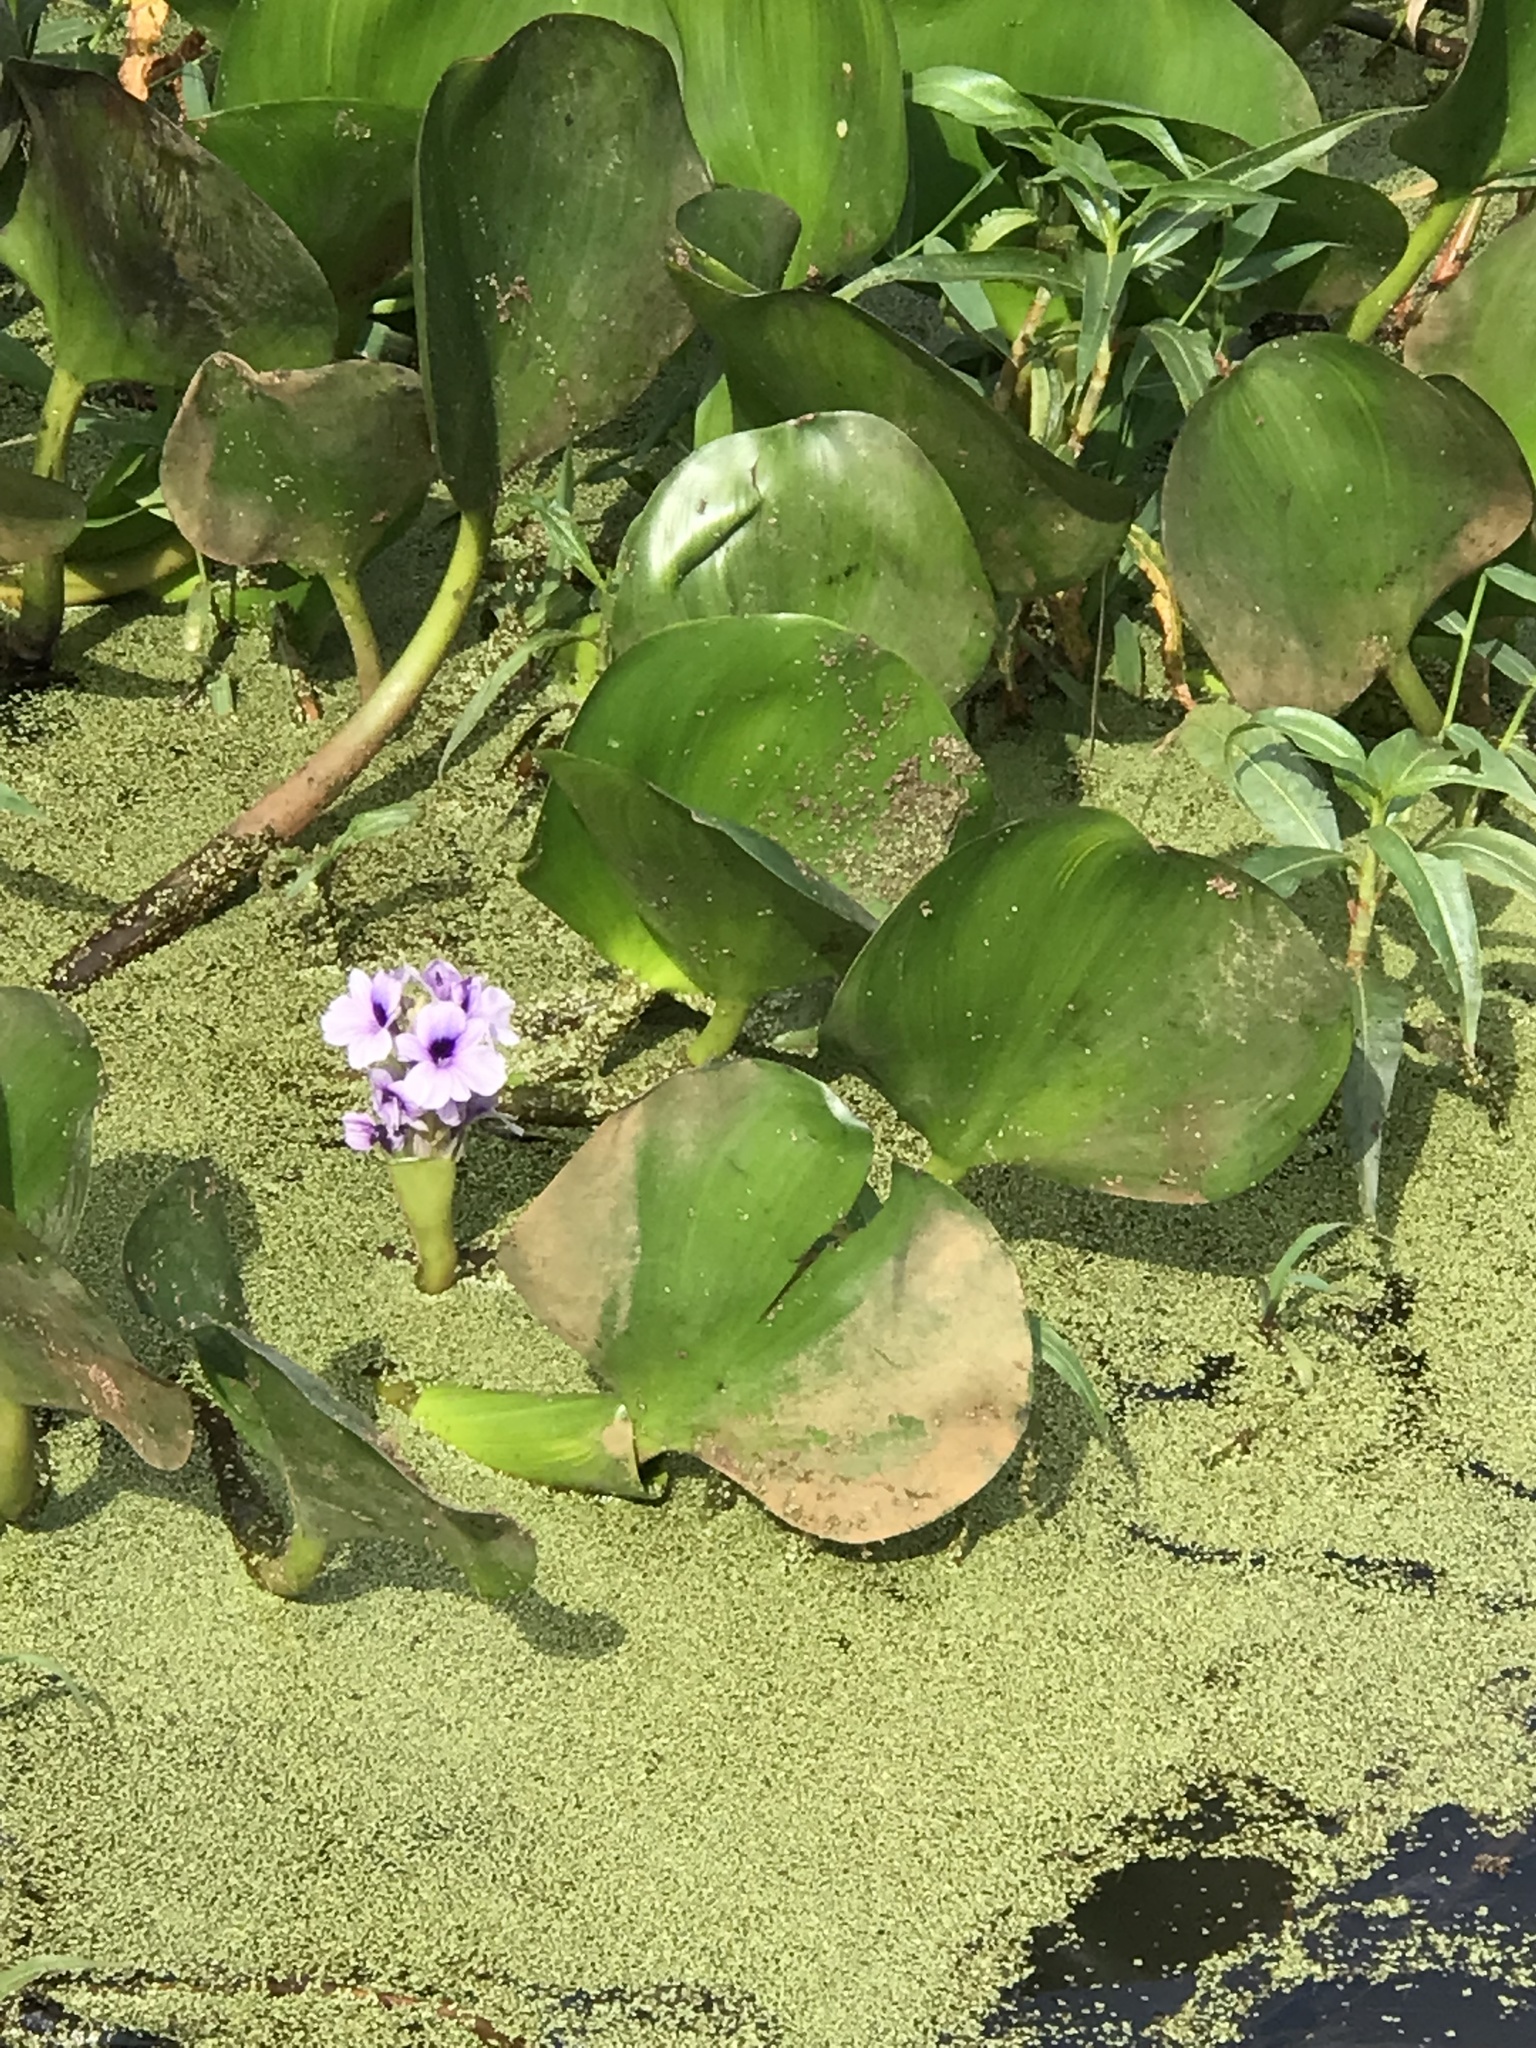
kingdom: Plantae
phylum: Tracheophyta
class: Liliopsida
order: Commelinales
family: Pontederiaceae
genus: Pontederia
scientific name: Pontederia azurea
